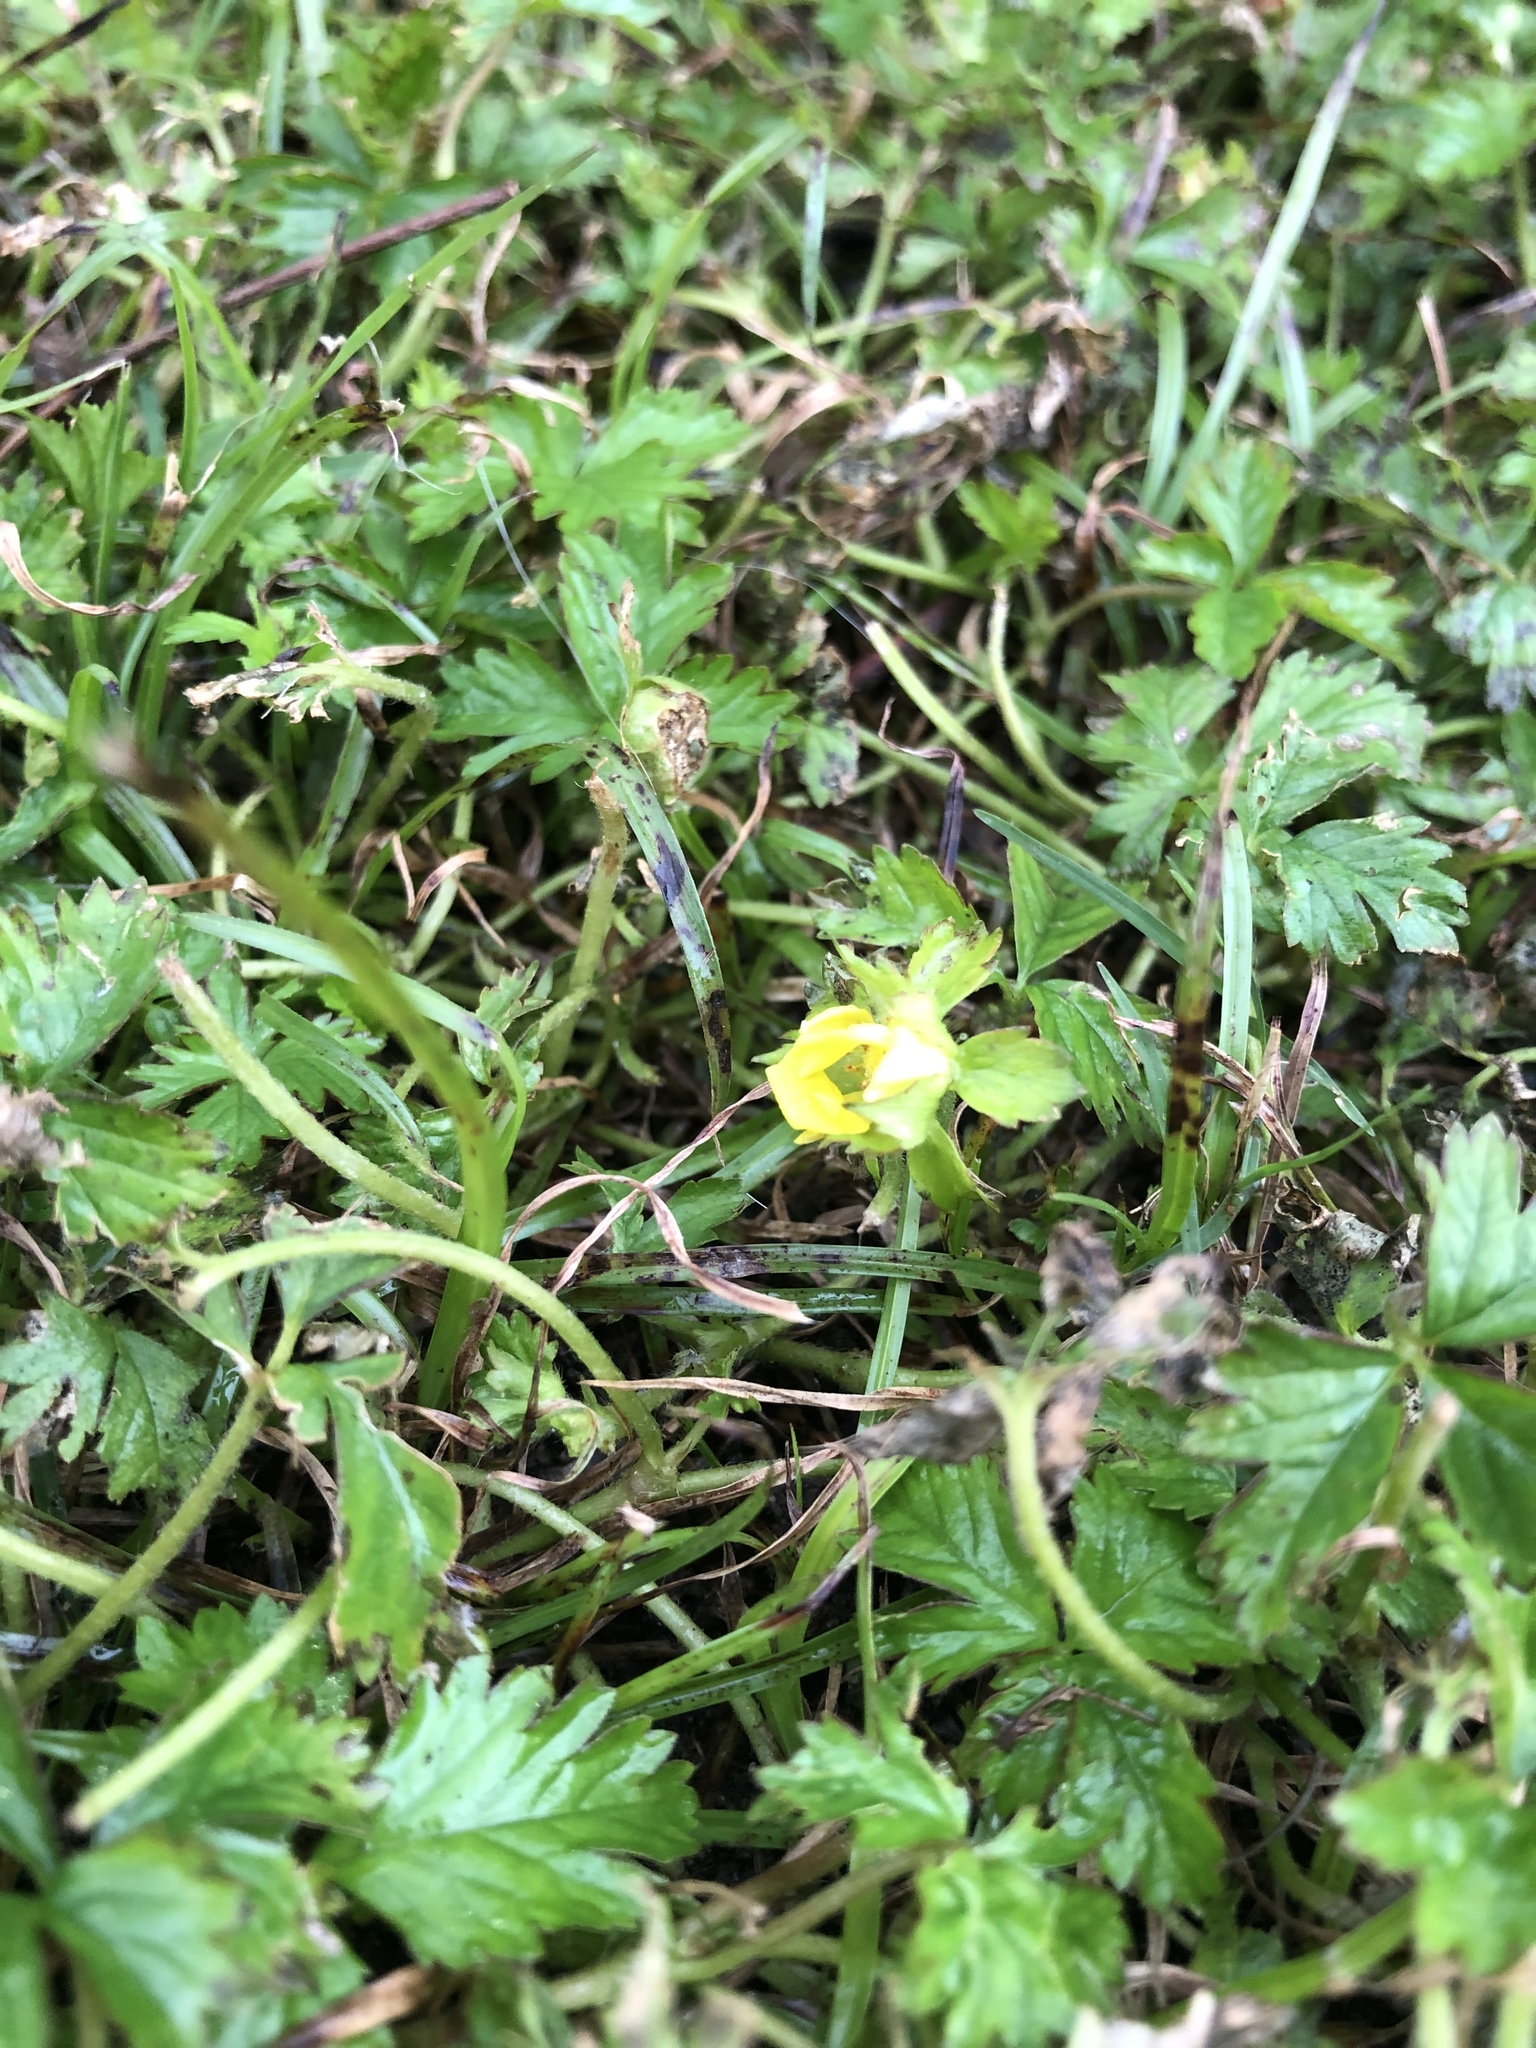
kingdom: Plantae
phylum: Tracheophyta
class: Magnoliopsida
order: Rosales
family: Rosaceae
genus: Potentilla
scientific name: Potentilla indica
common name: Yellow-flowered strawberry
